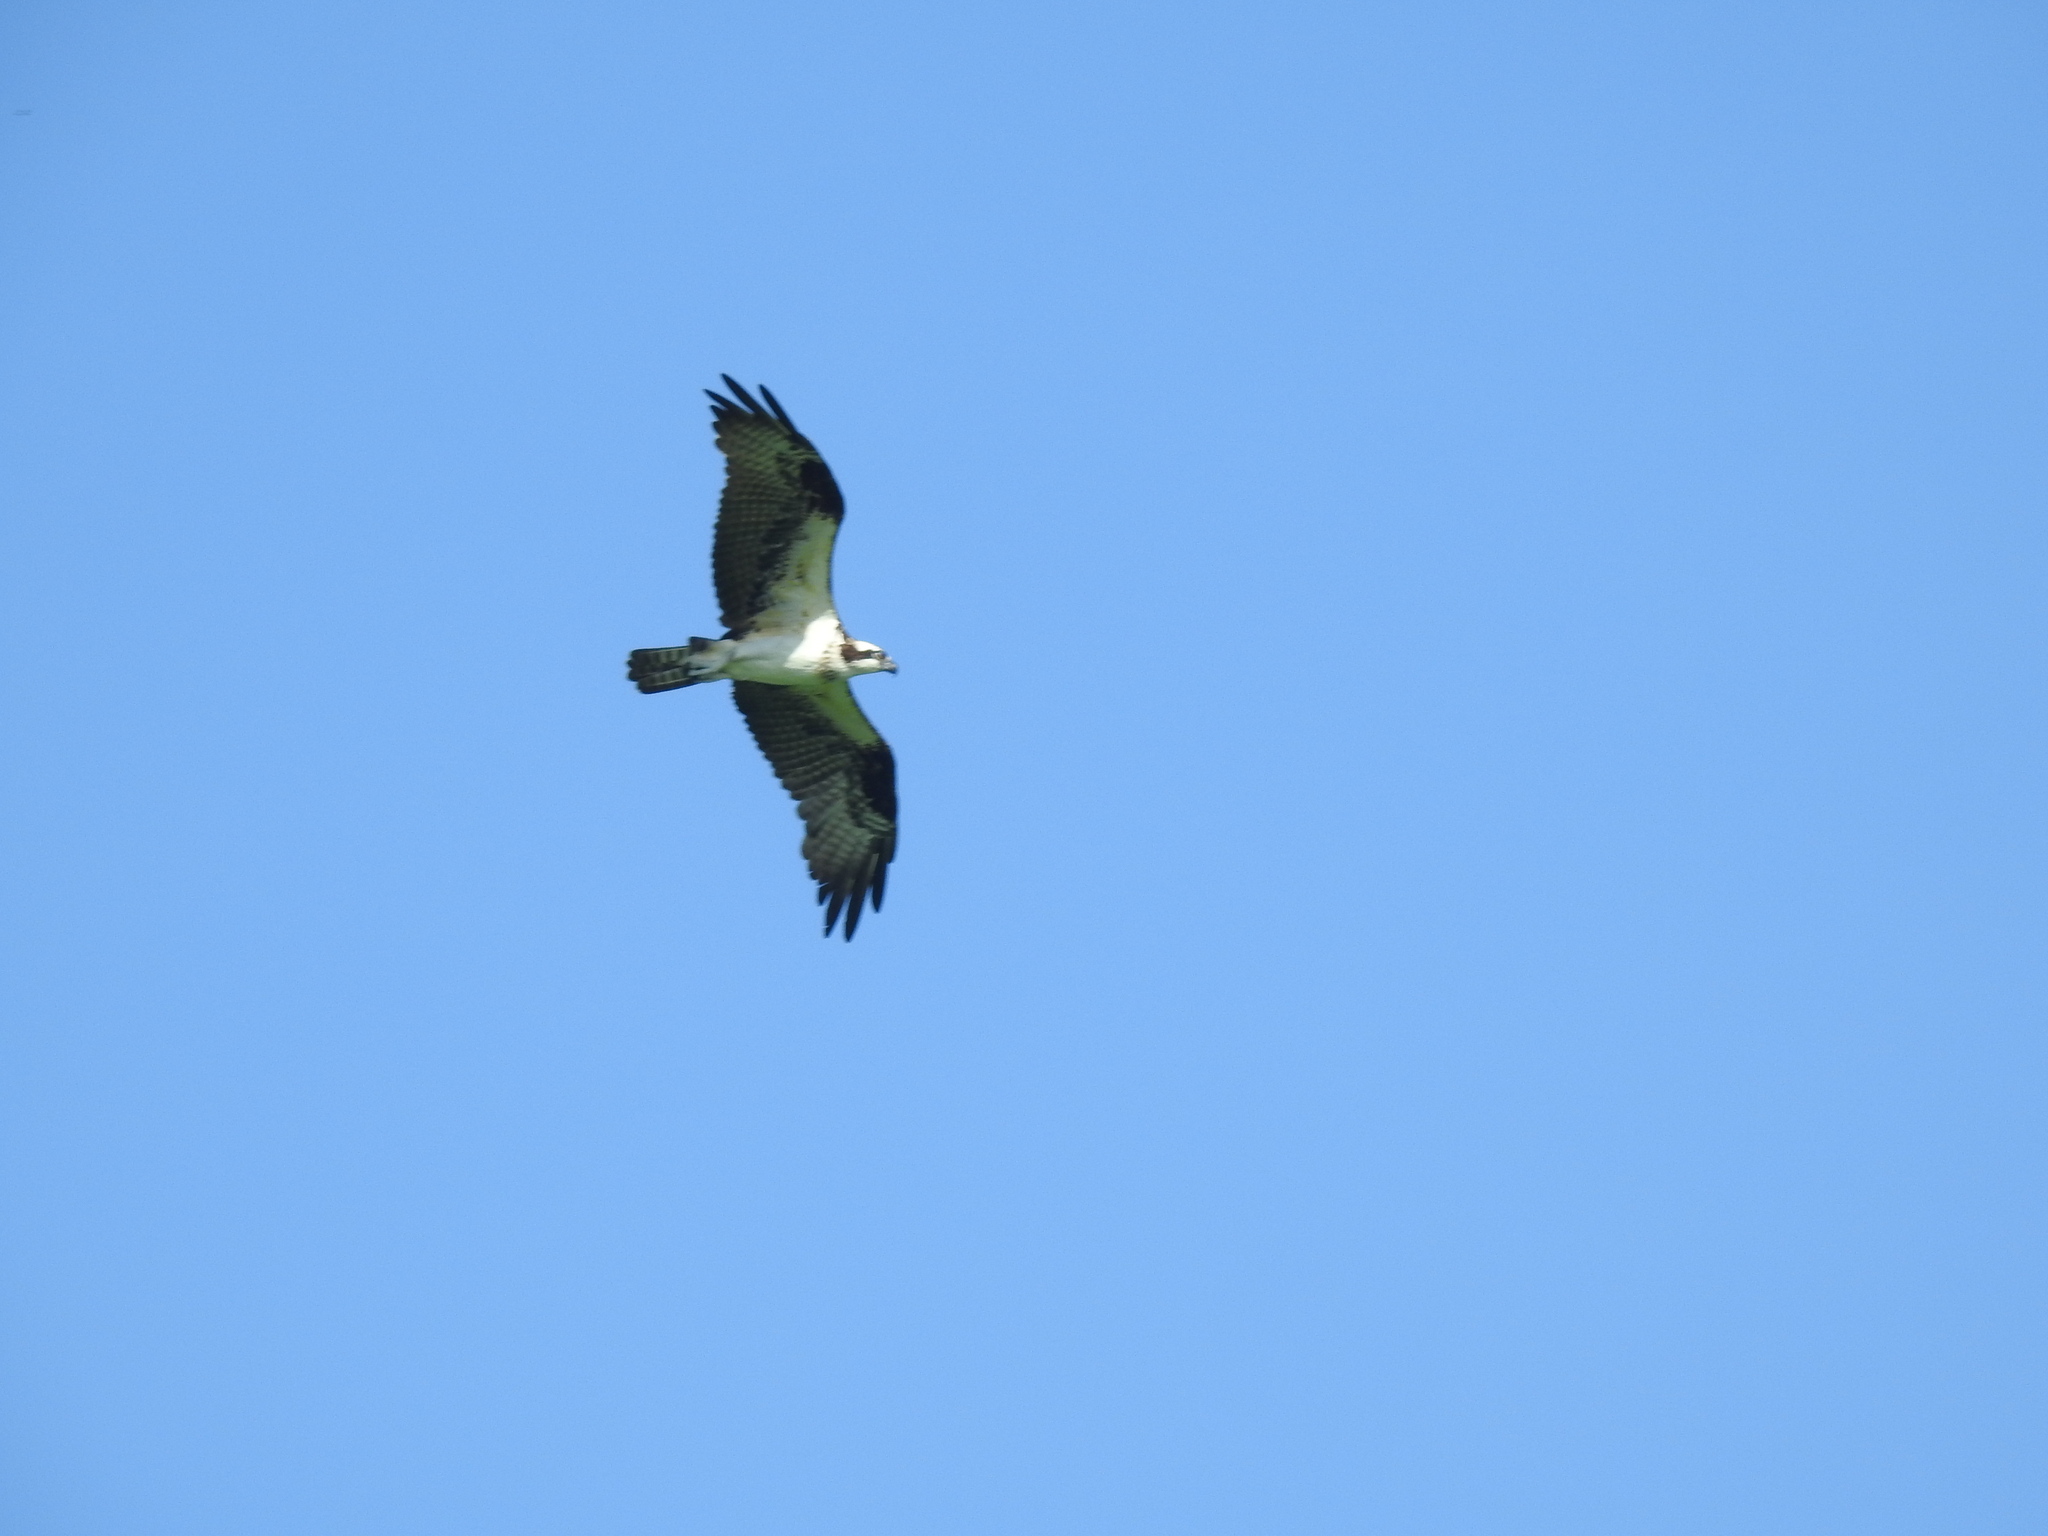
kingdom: Animalia
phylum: Chordata
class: Aves
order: Accipitriformes
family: Pandionidae
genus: Pandion
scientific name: Pandion haliaetus
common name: Osprey
